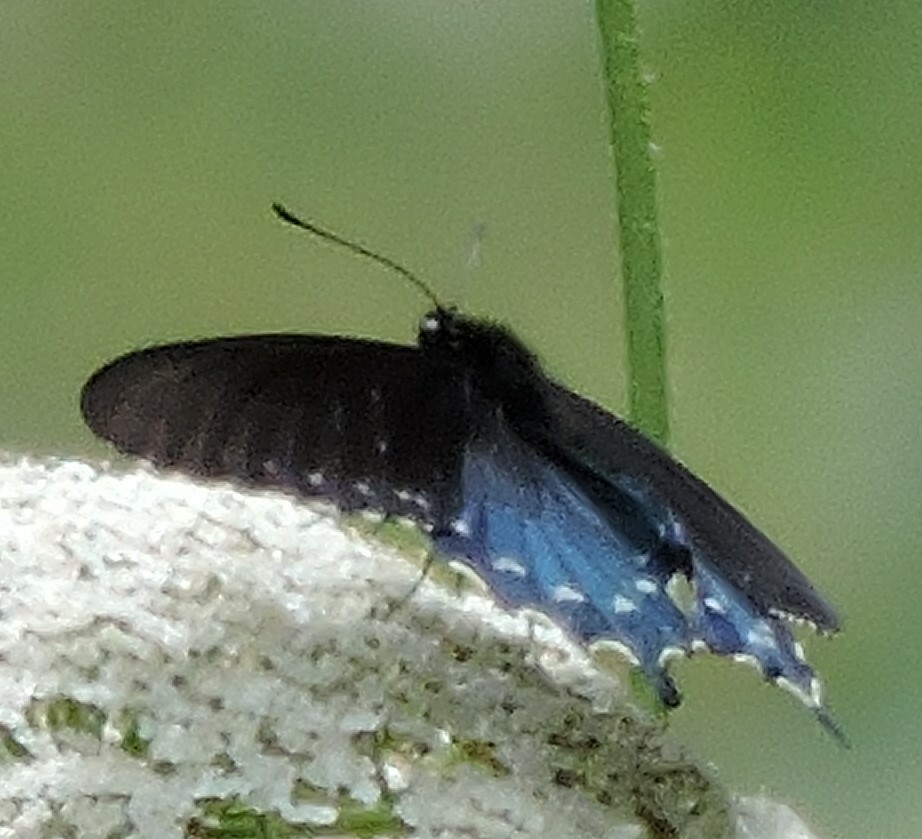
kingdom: Animalia
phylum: Arthropoda
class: Insecta
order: Lepidoptera
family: Papilionidae
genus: Battus
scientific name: Battus philenor
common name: Pipevine swallowtail
